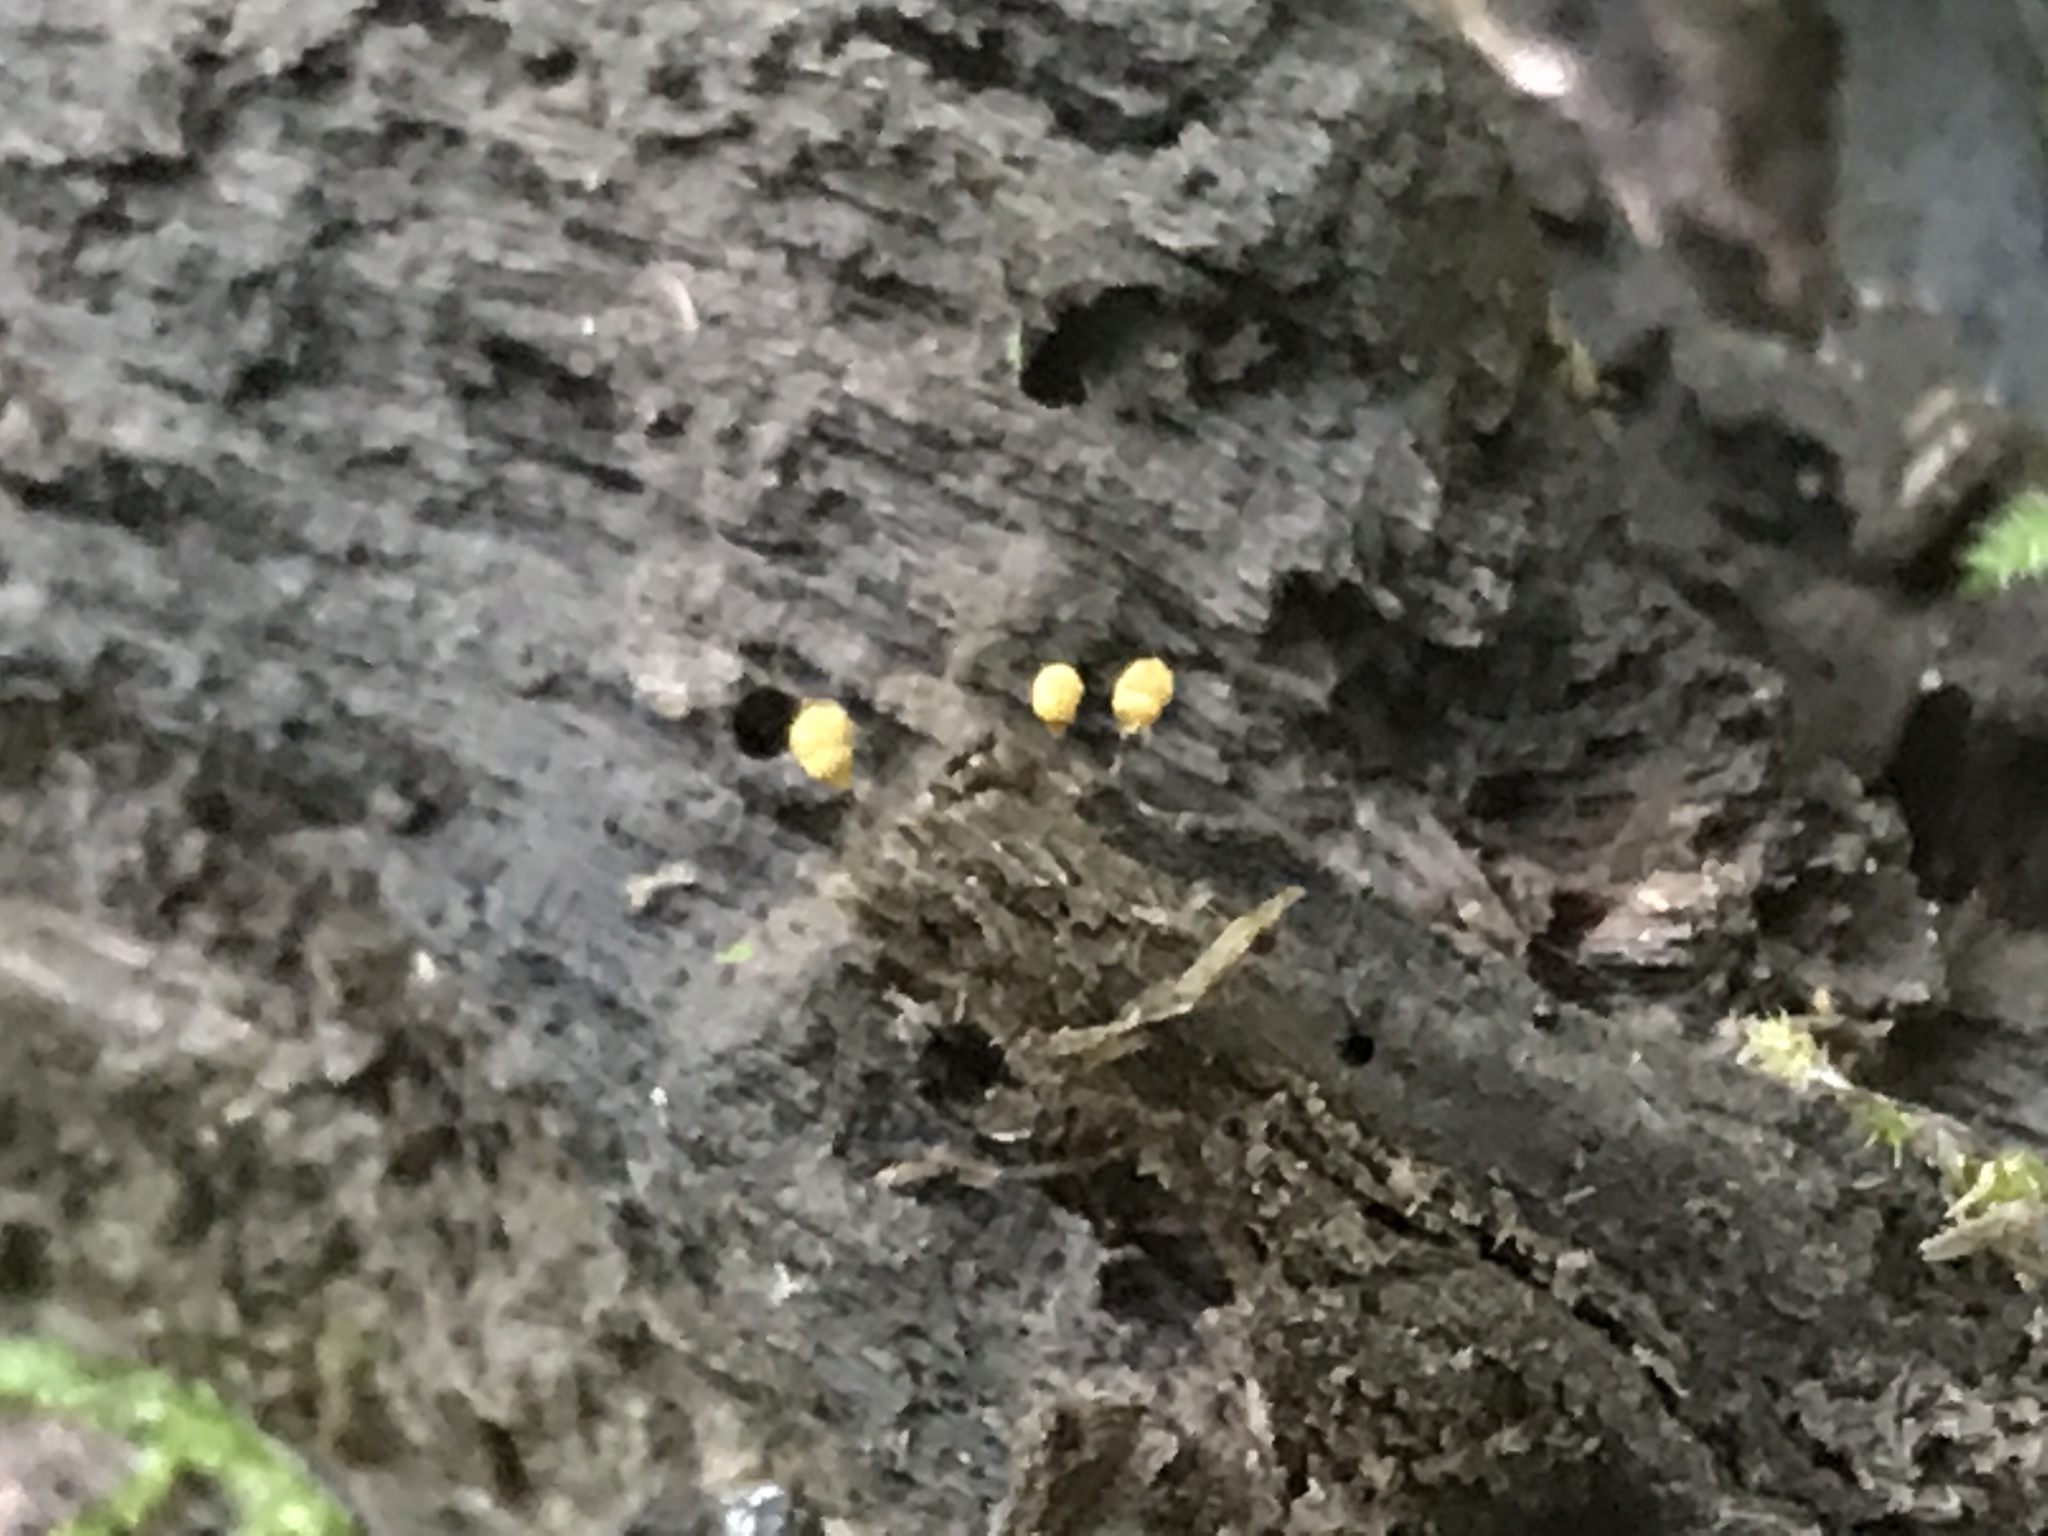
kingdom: Protozoa
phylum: Mycetozoa
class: Myxomycetes
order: Trichiales
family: Arcyriaceae
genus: Hemitrichia
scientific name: Hemitrichia calyculata
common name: Push pin slime mold
